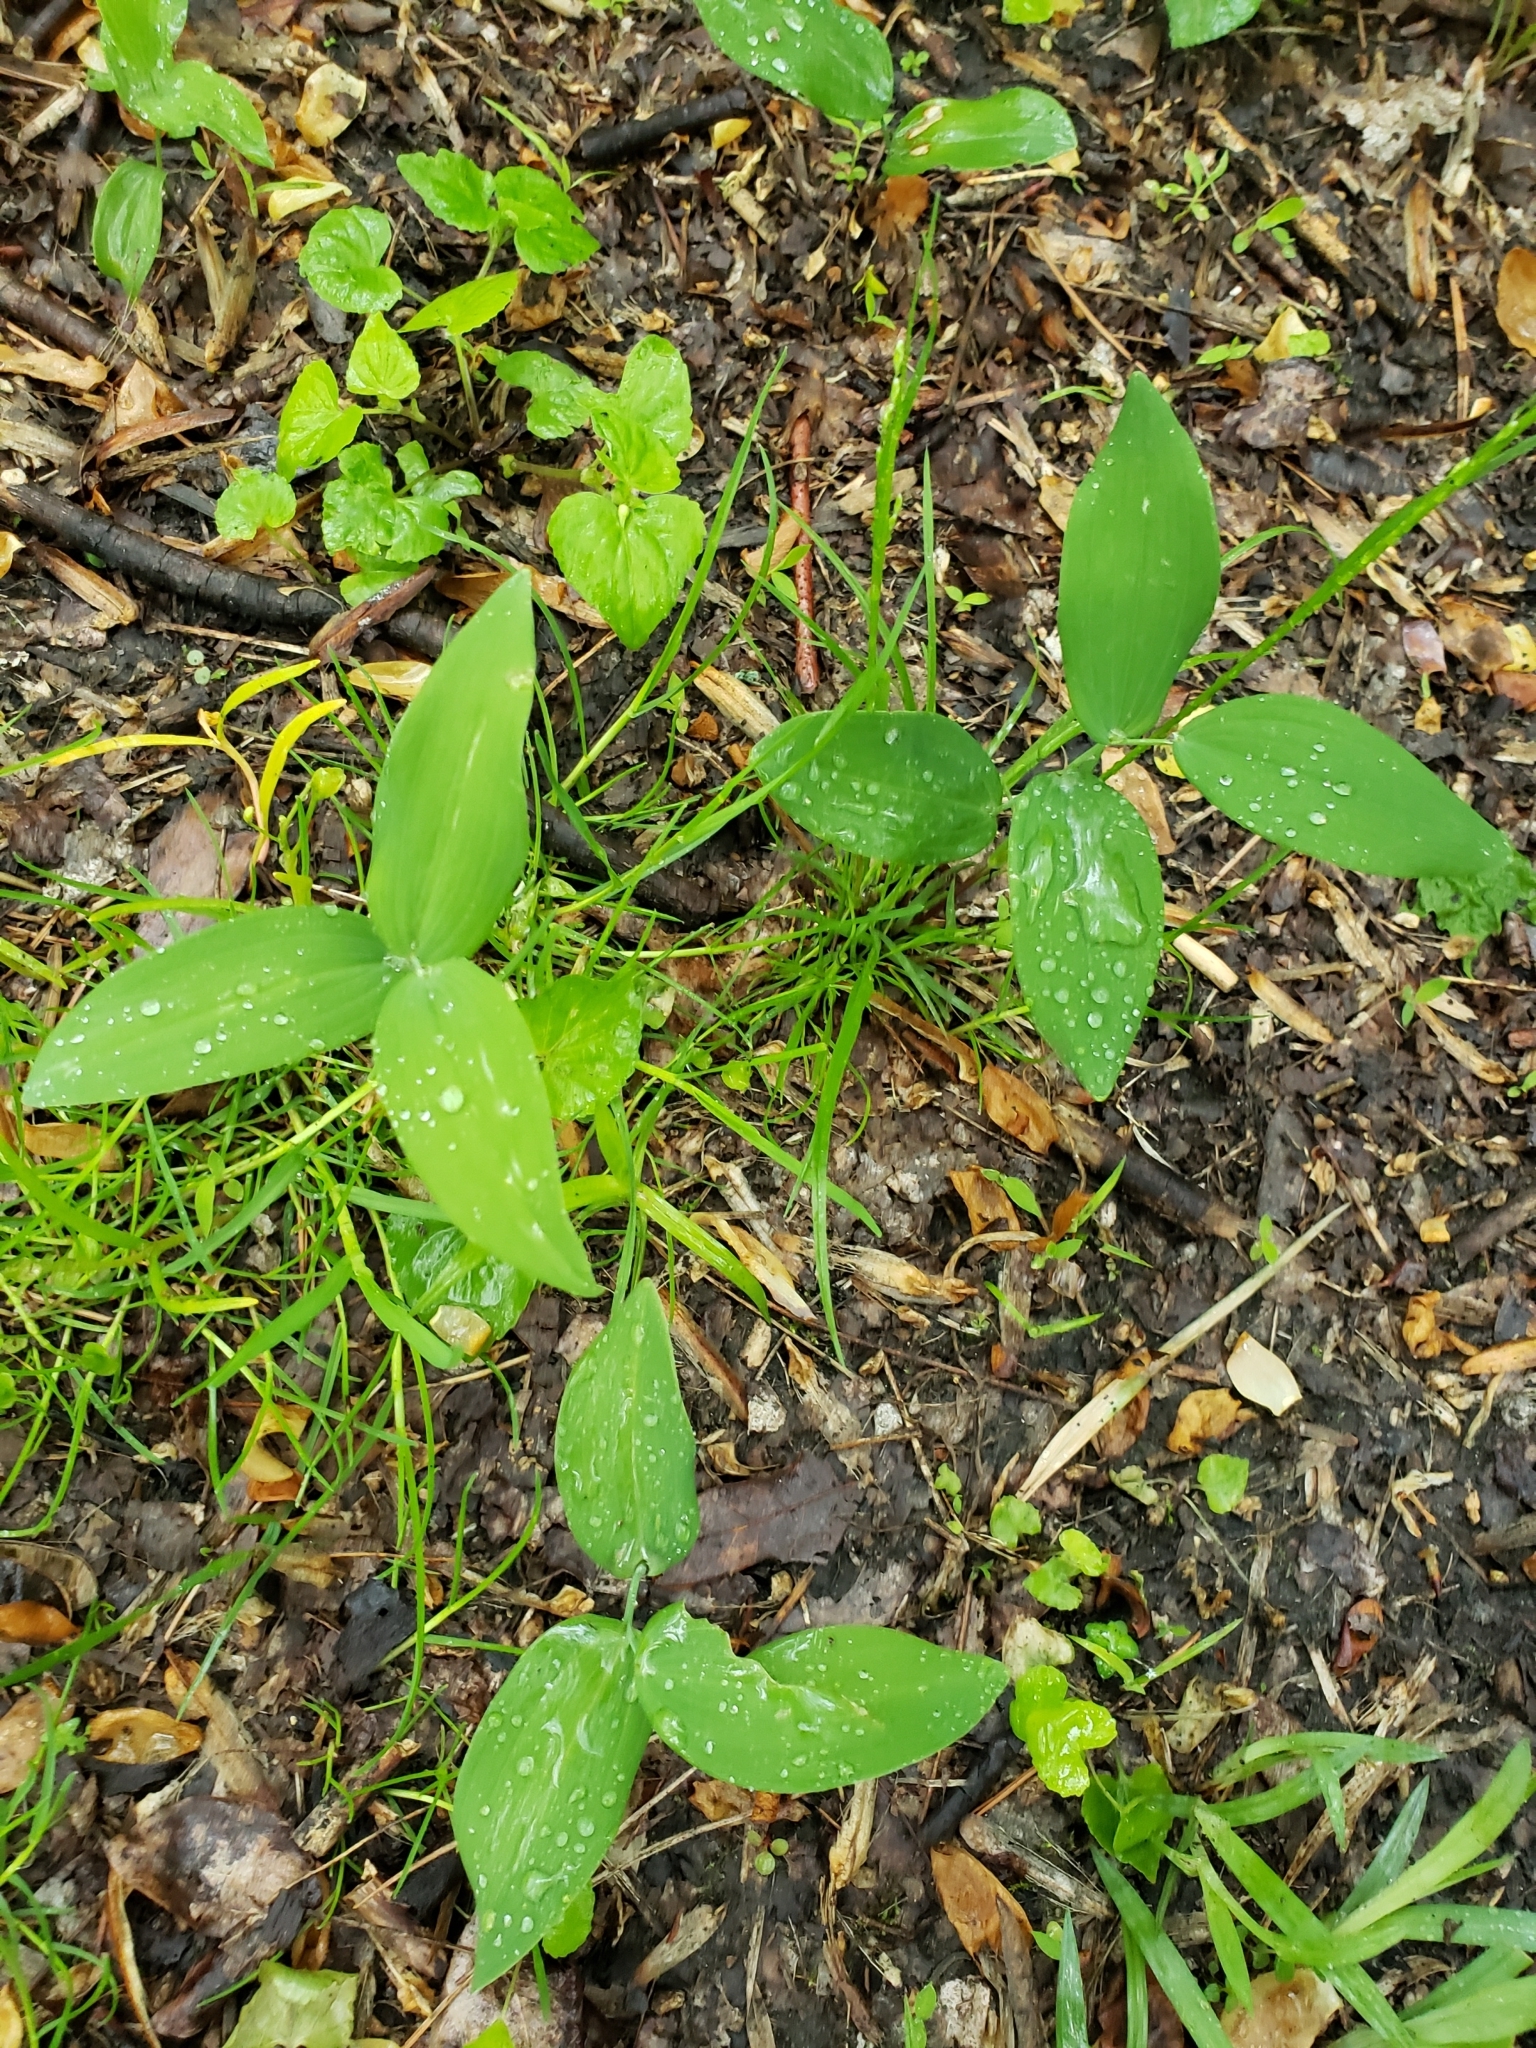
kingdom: Plantae
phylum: Tracheophyta
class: Liliopsida
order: Asparagales
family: Asparagaceae
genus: Polygonatum
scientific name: Polygonatum biflorum
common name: American solomon's-seal
